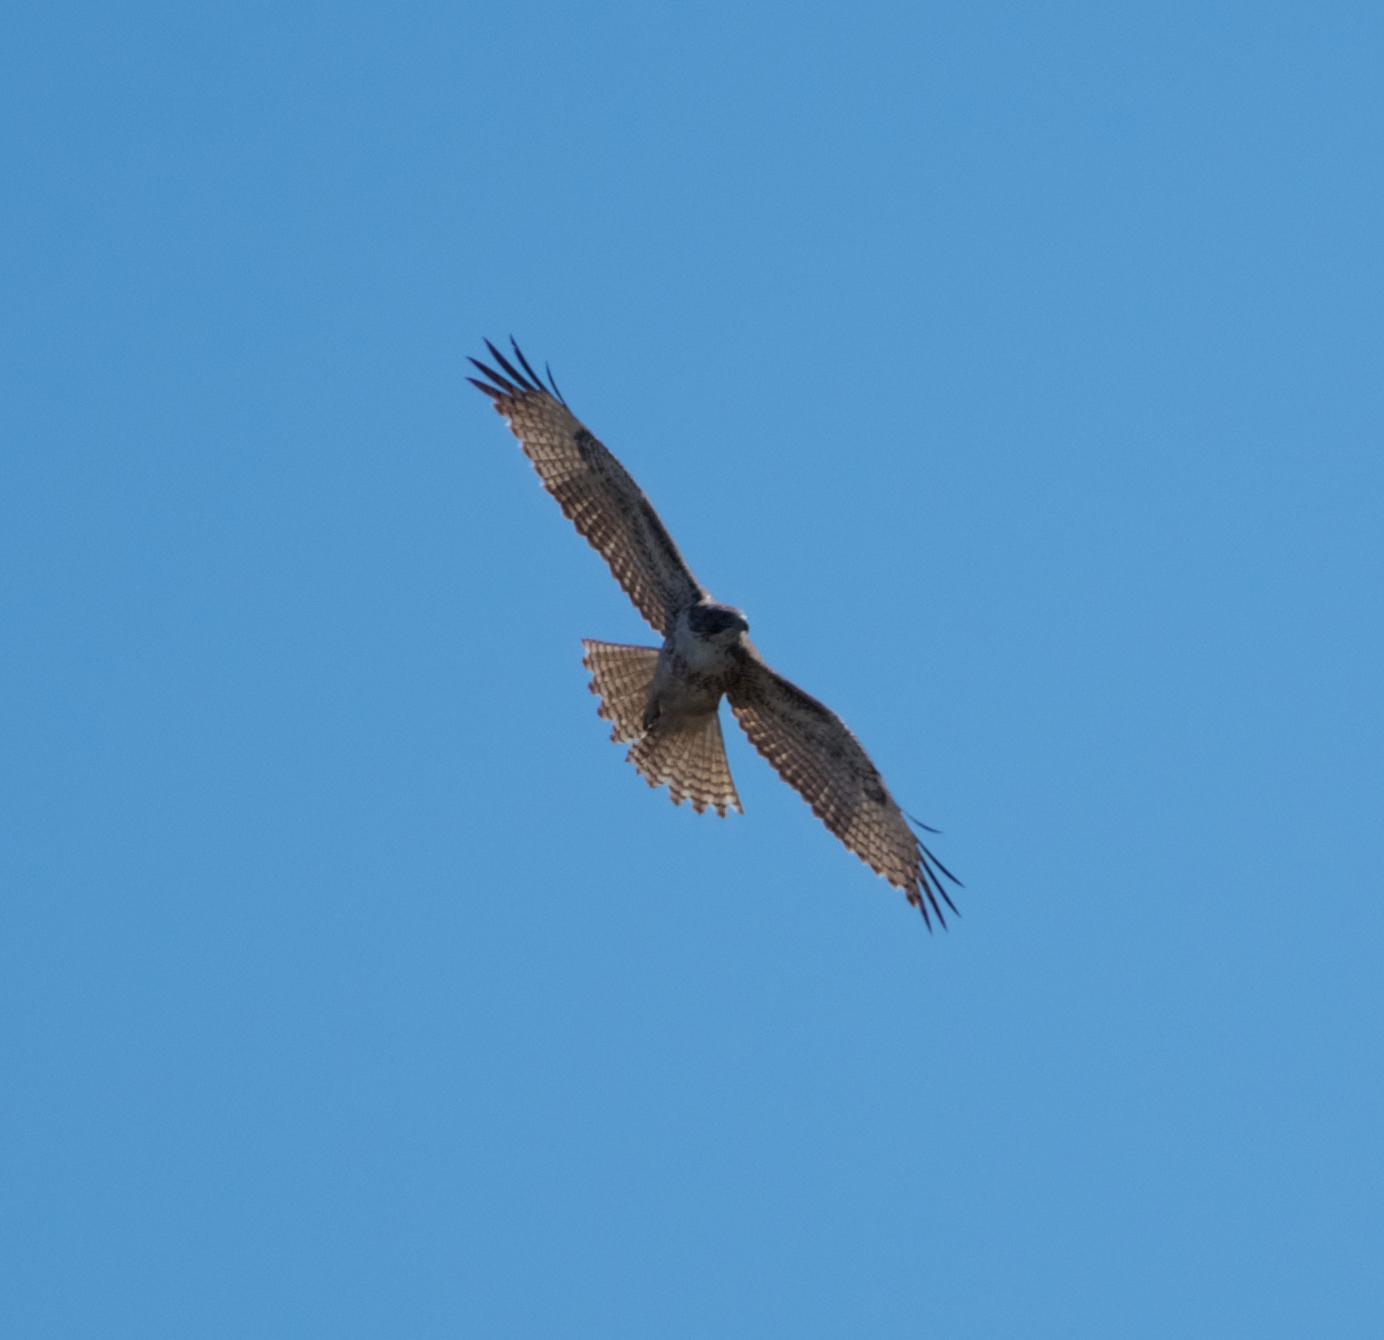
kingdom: Animalia
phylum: Chordata
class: Aves
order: Accipitriformes
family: Accipitridae
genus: Buteo
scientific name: Buteo jamaicensis
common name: Red-tailed hawk
